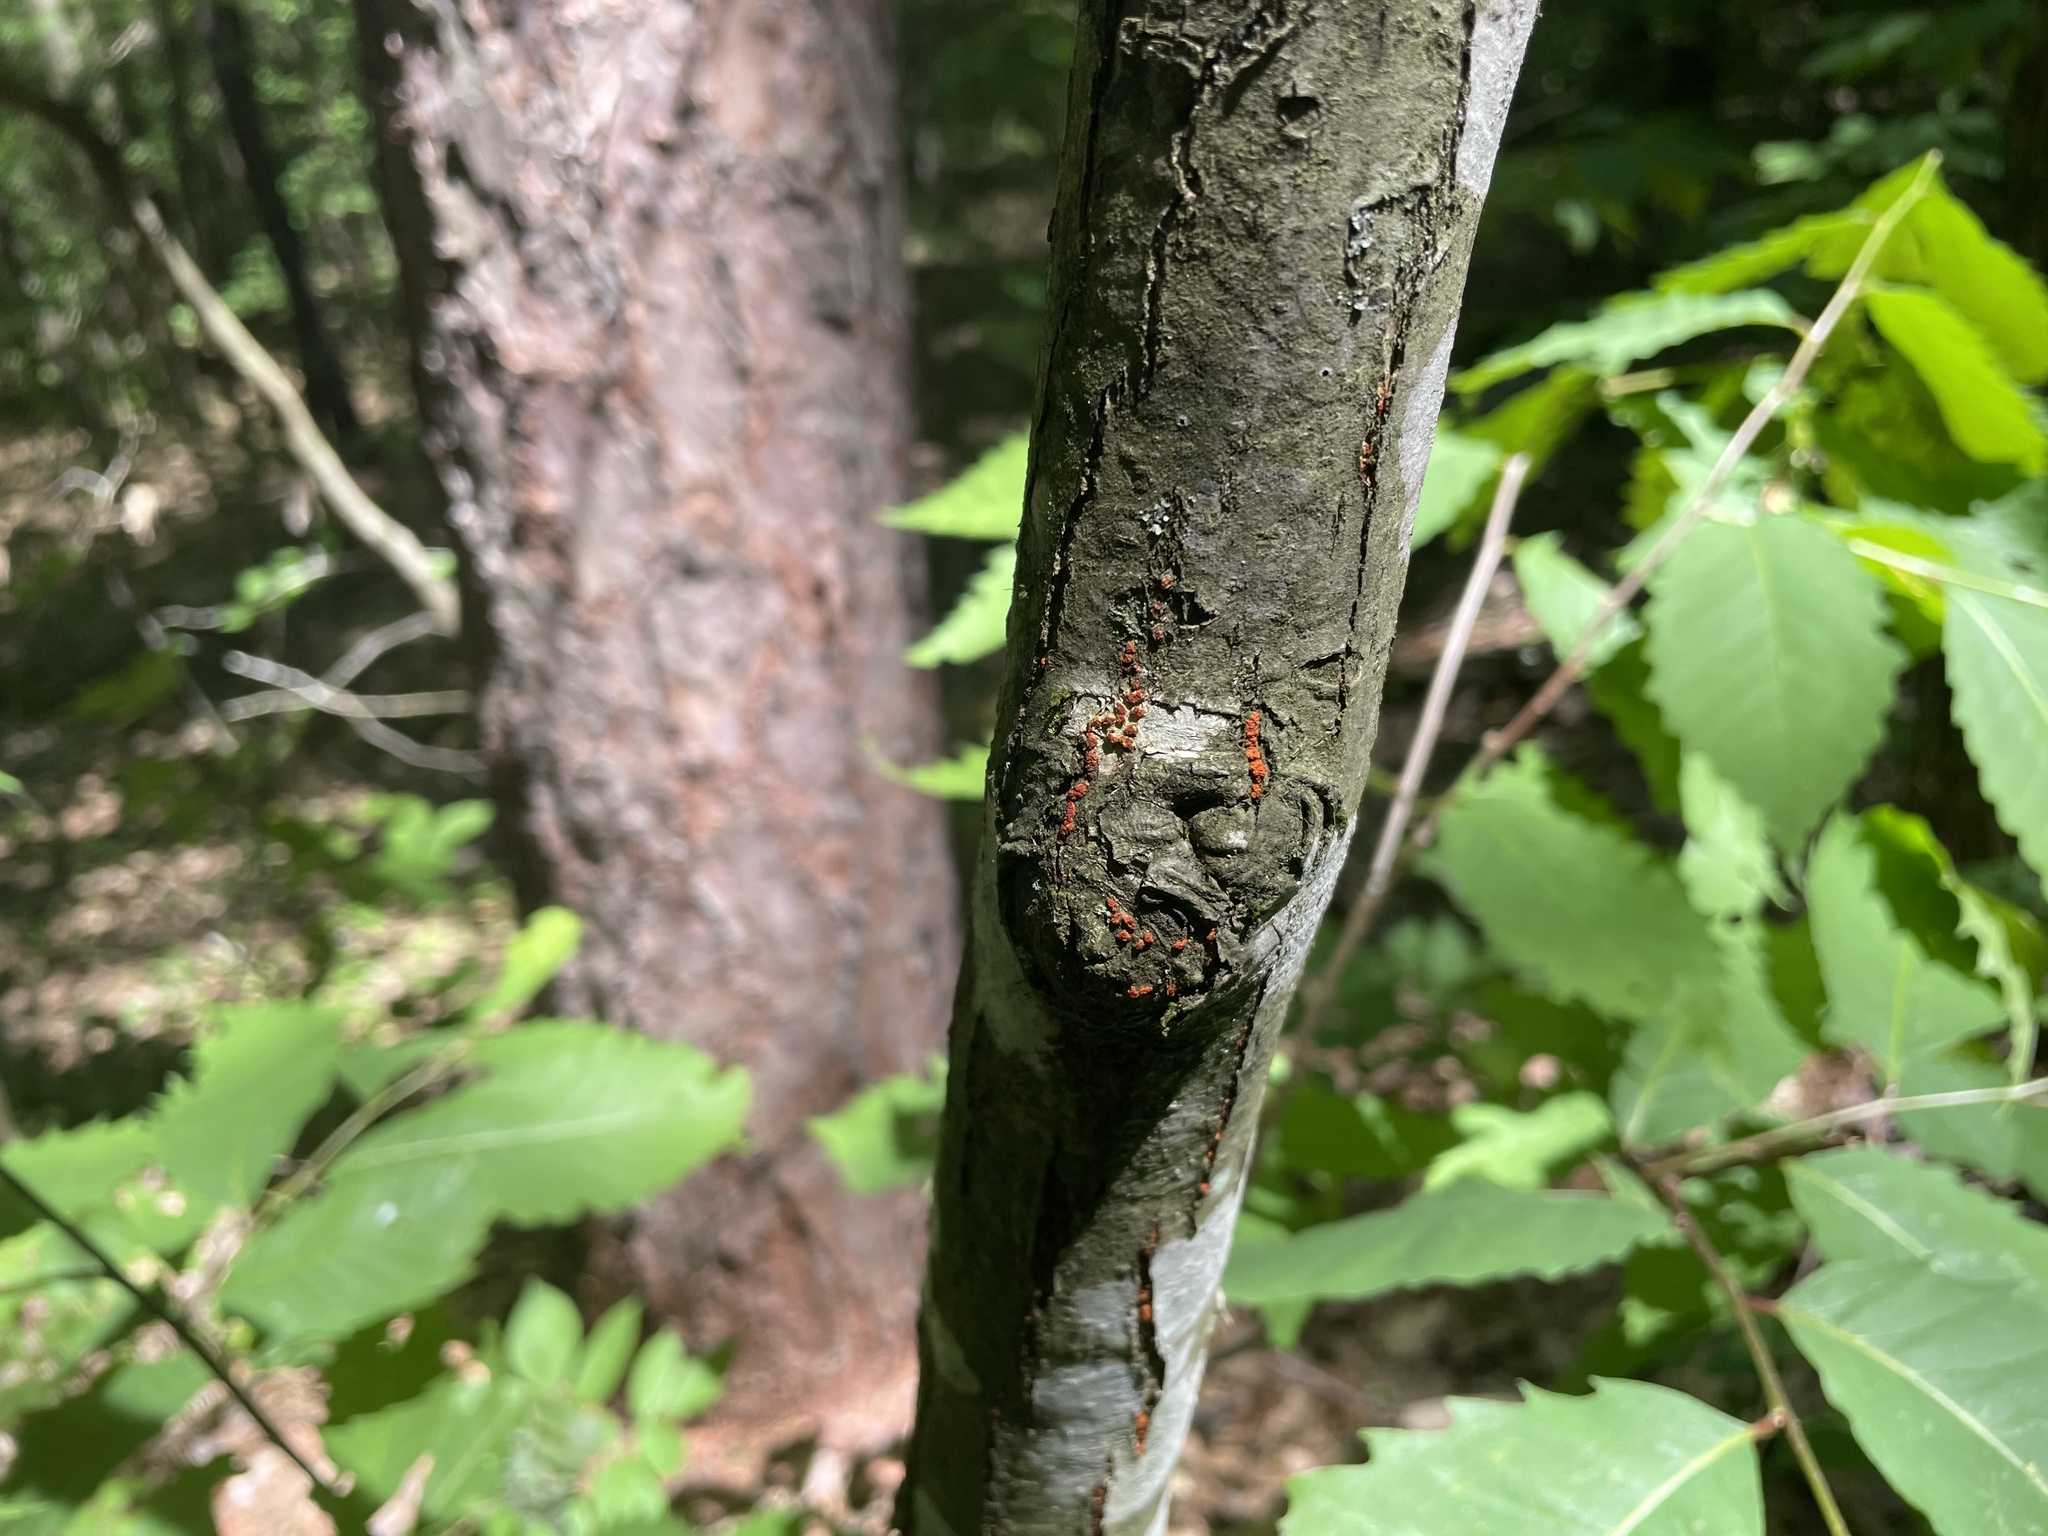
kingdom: Plantae
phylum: Tracheophyta
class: Magnoliopsida
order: Fagales
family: Fagaceae
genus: Castanea
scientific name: Castanea dentata
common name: American chestnut
